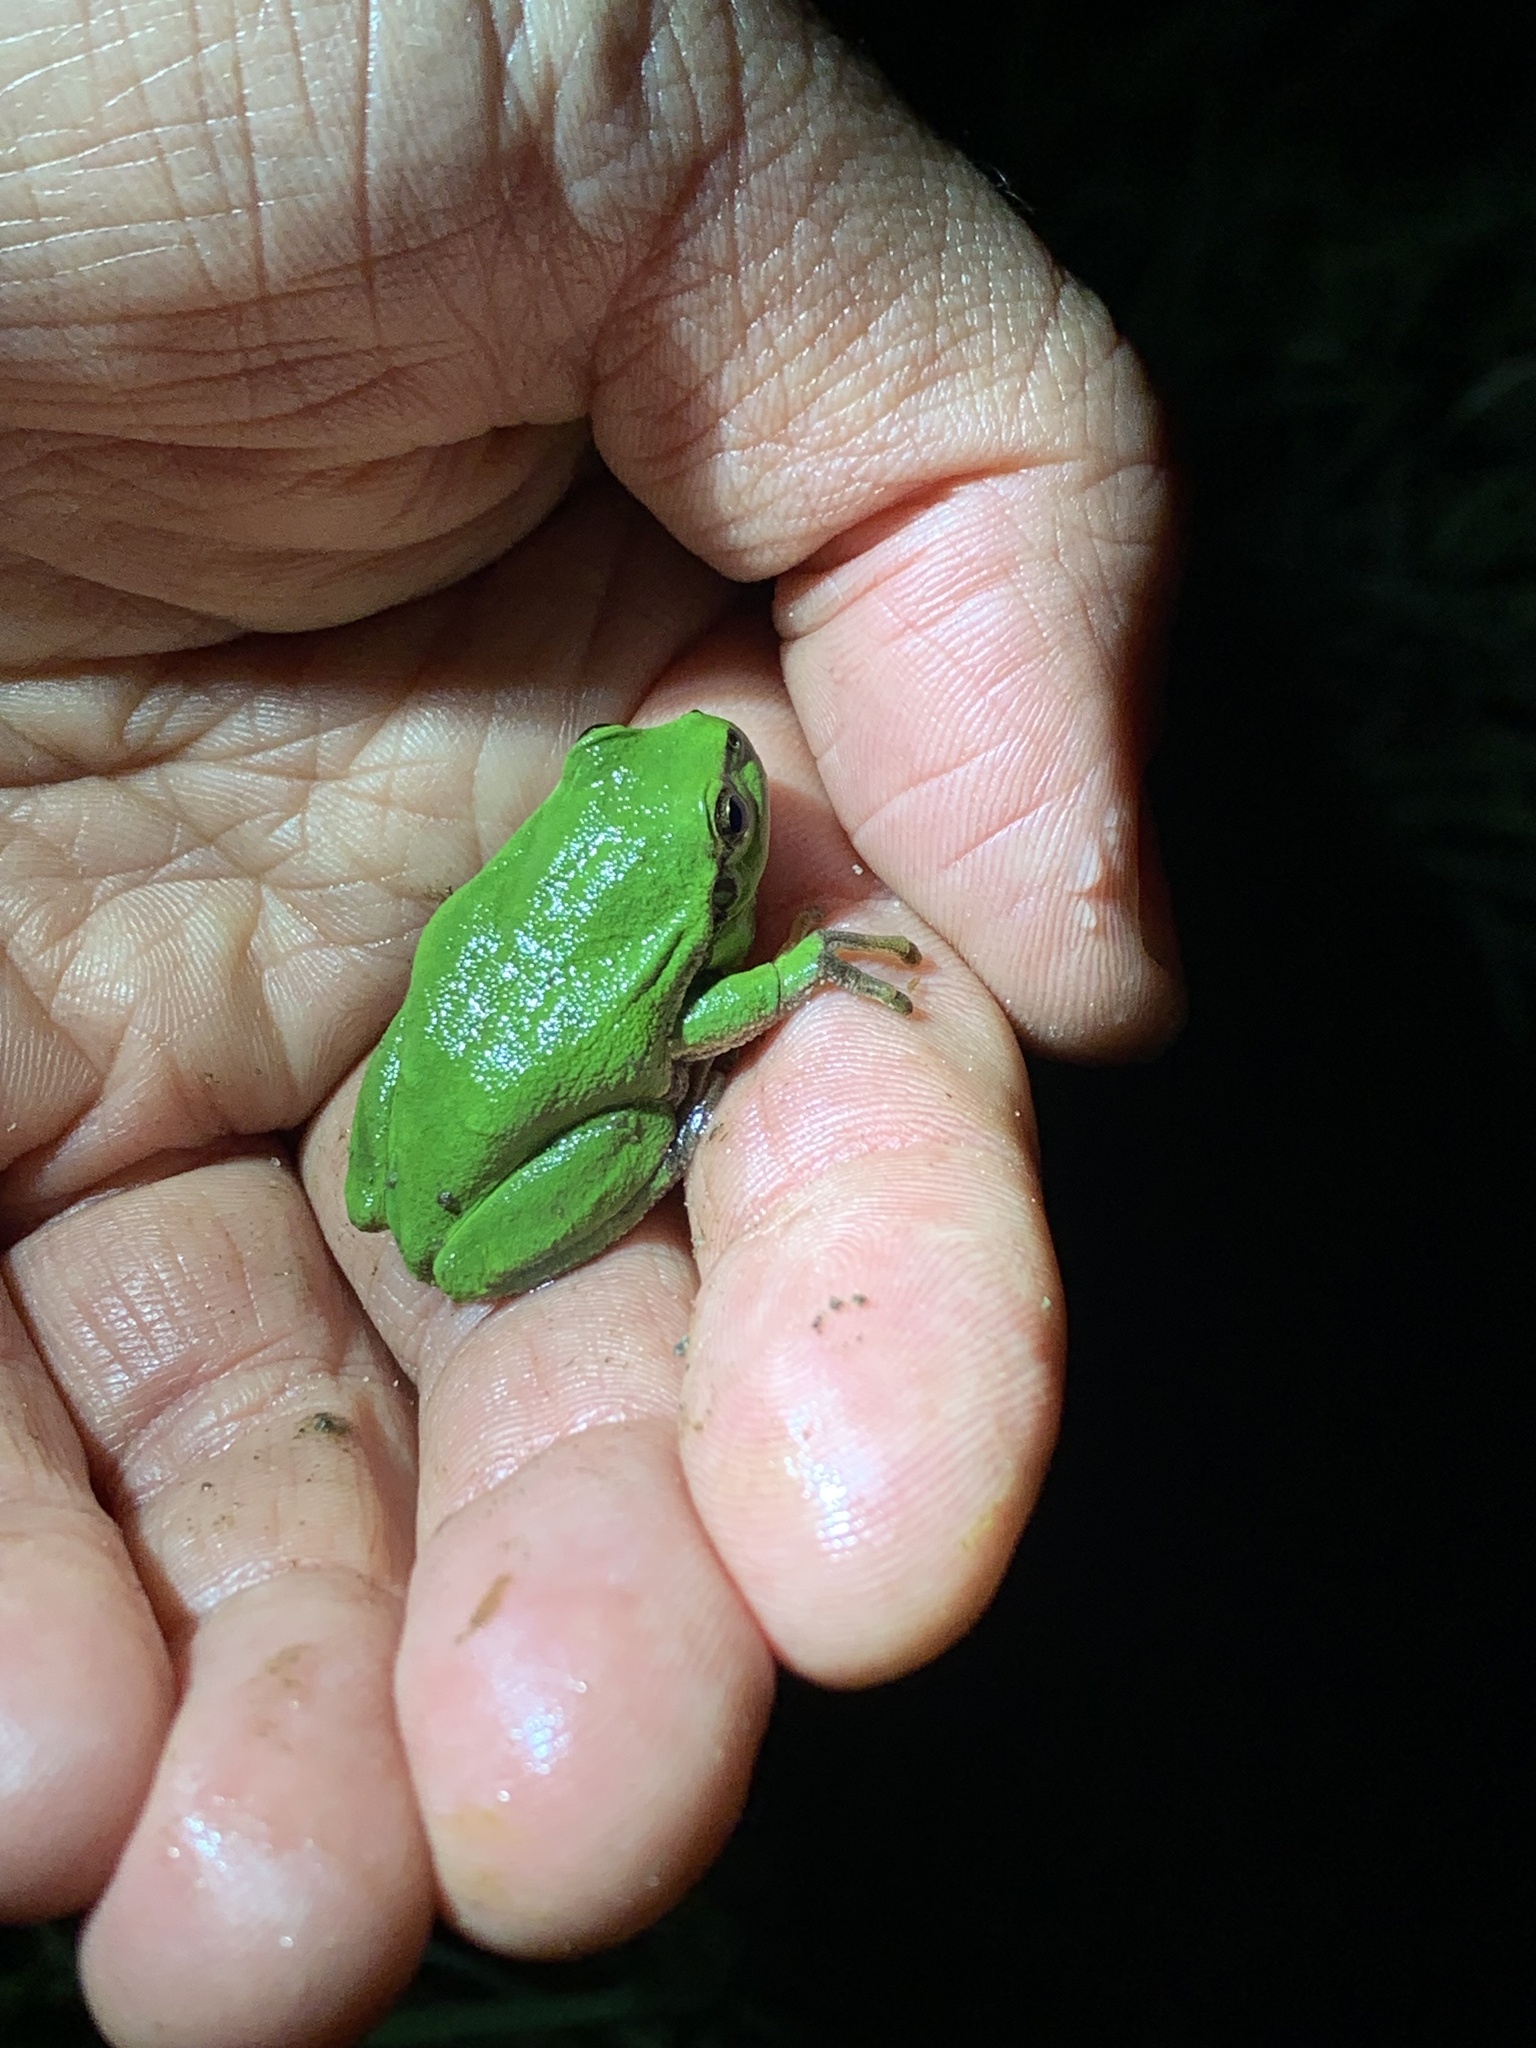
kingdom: Animalia
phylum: Chordata
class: Amphibia
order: Anura
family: Hylidae
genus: Hyla
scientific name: Hyla arborea
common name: Common tree frog
